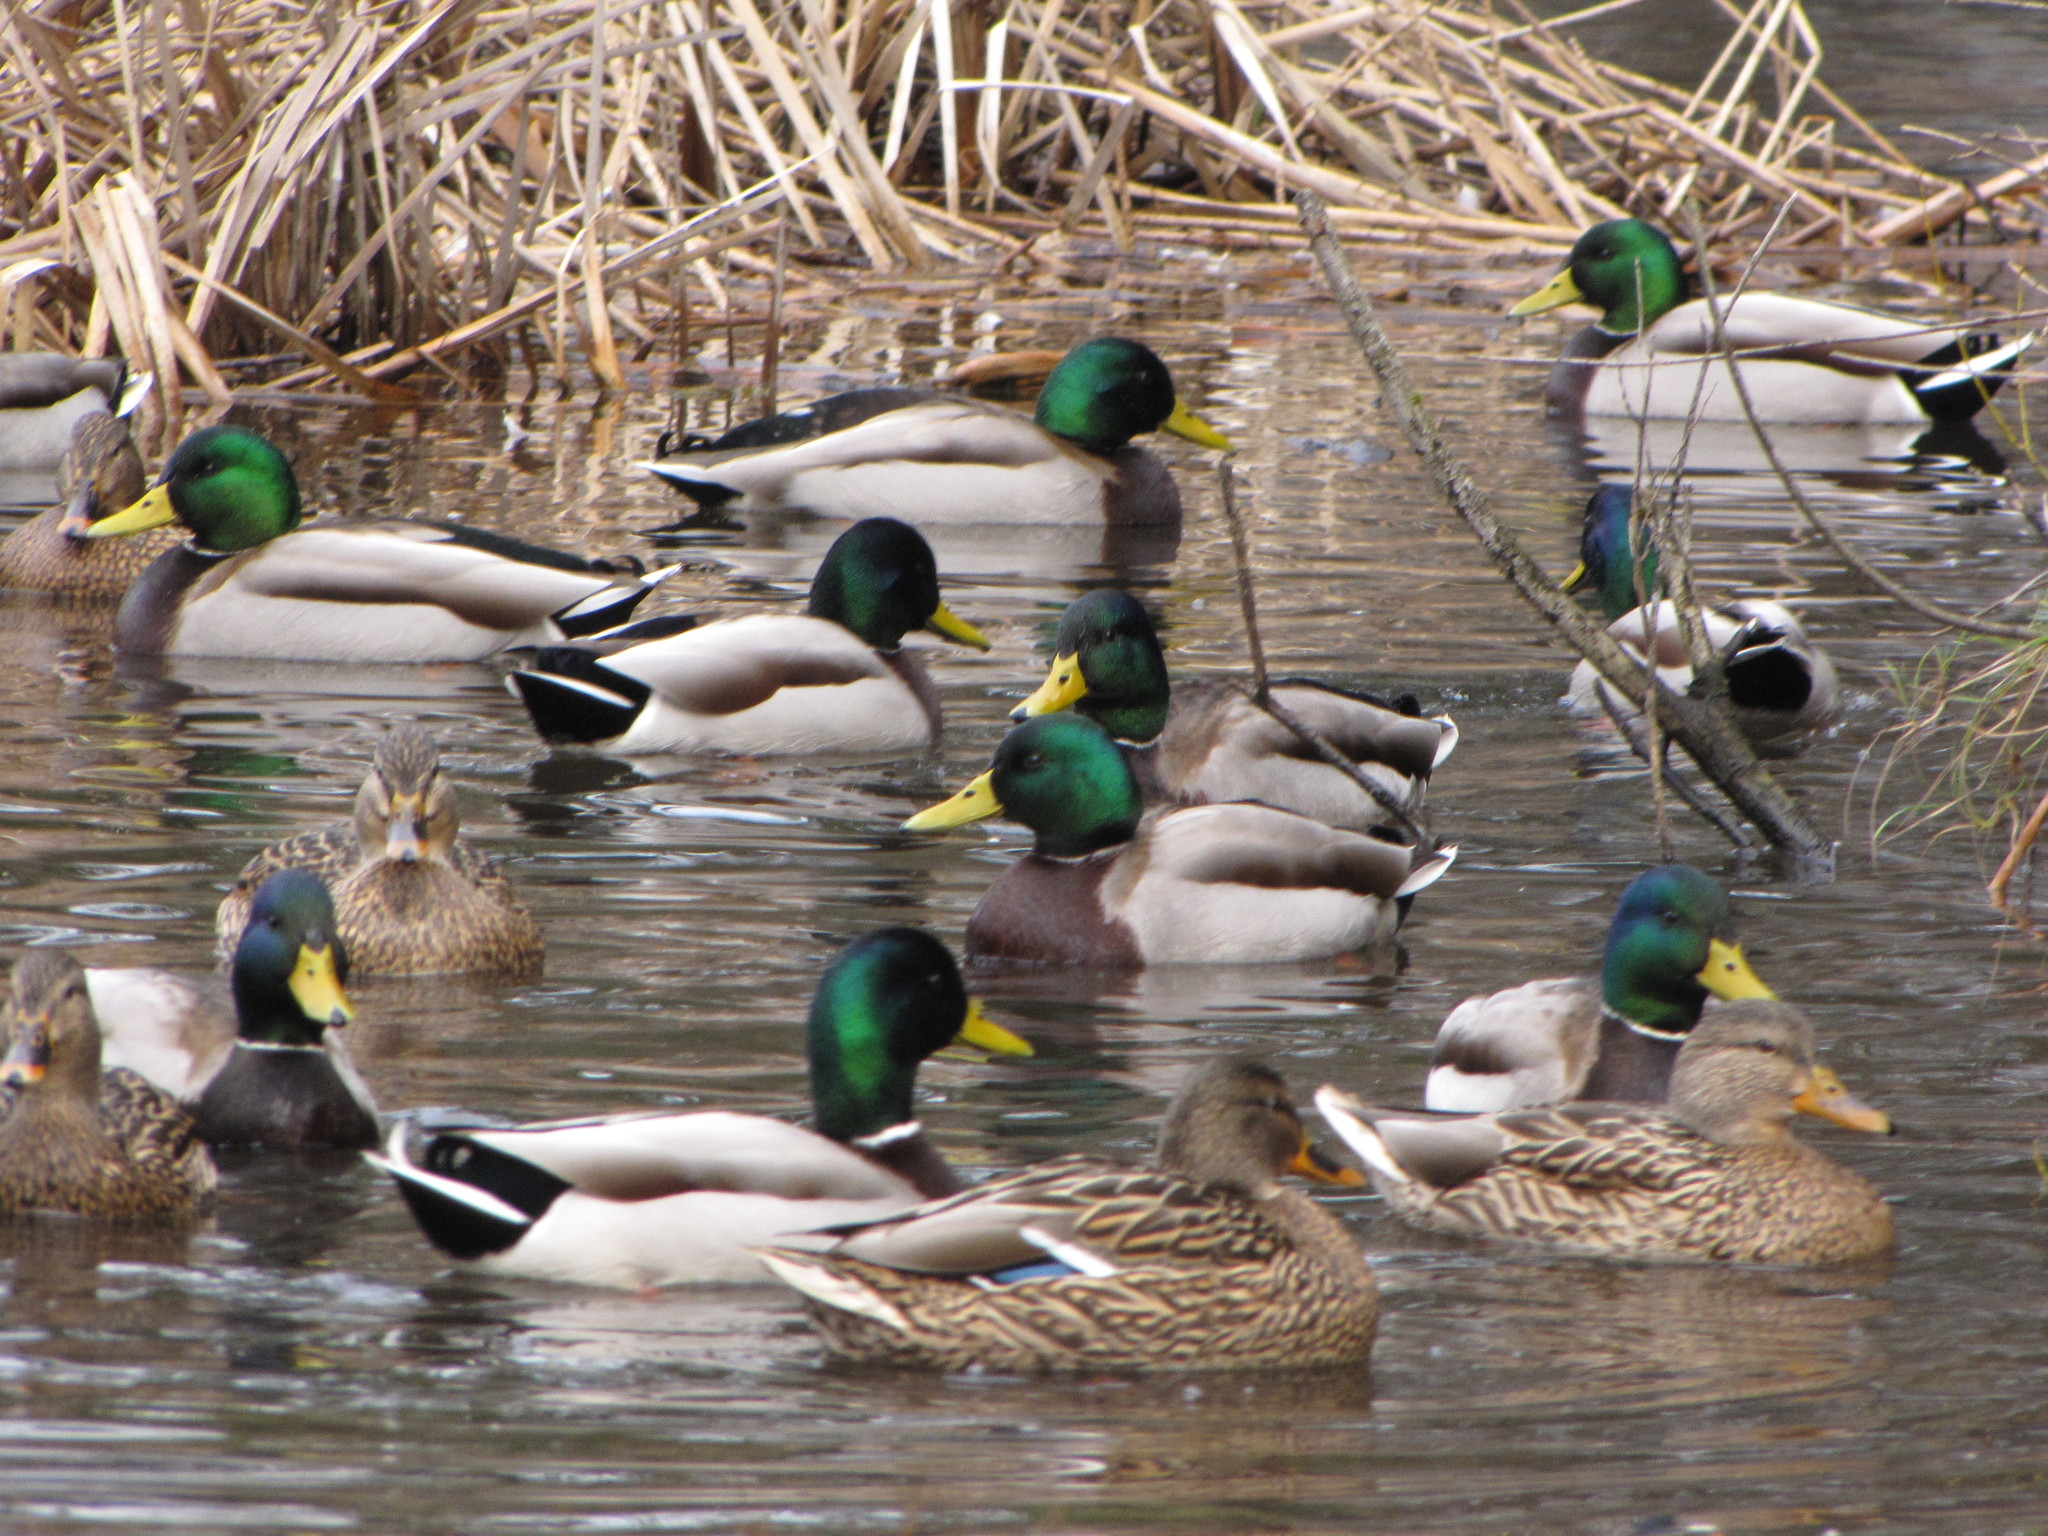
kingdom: Animalia
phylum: Chordata
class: Aves
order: Anseriformes
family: Anatidae
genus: Anas
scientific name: Anas platyrhynchos
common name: Mallard
